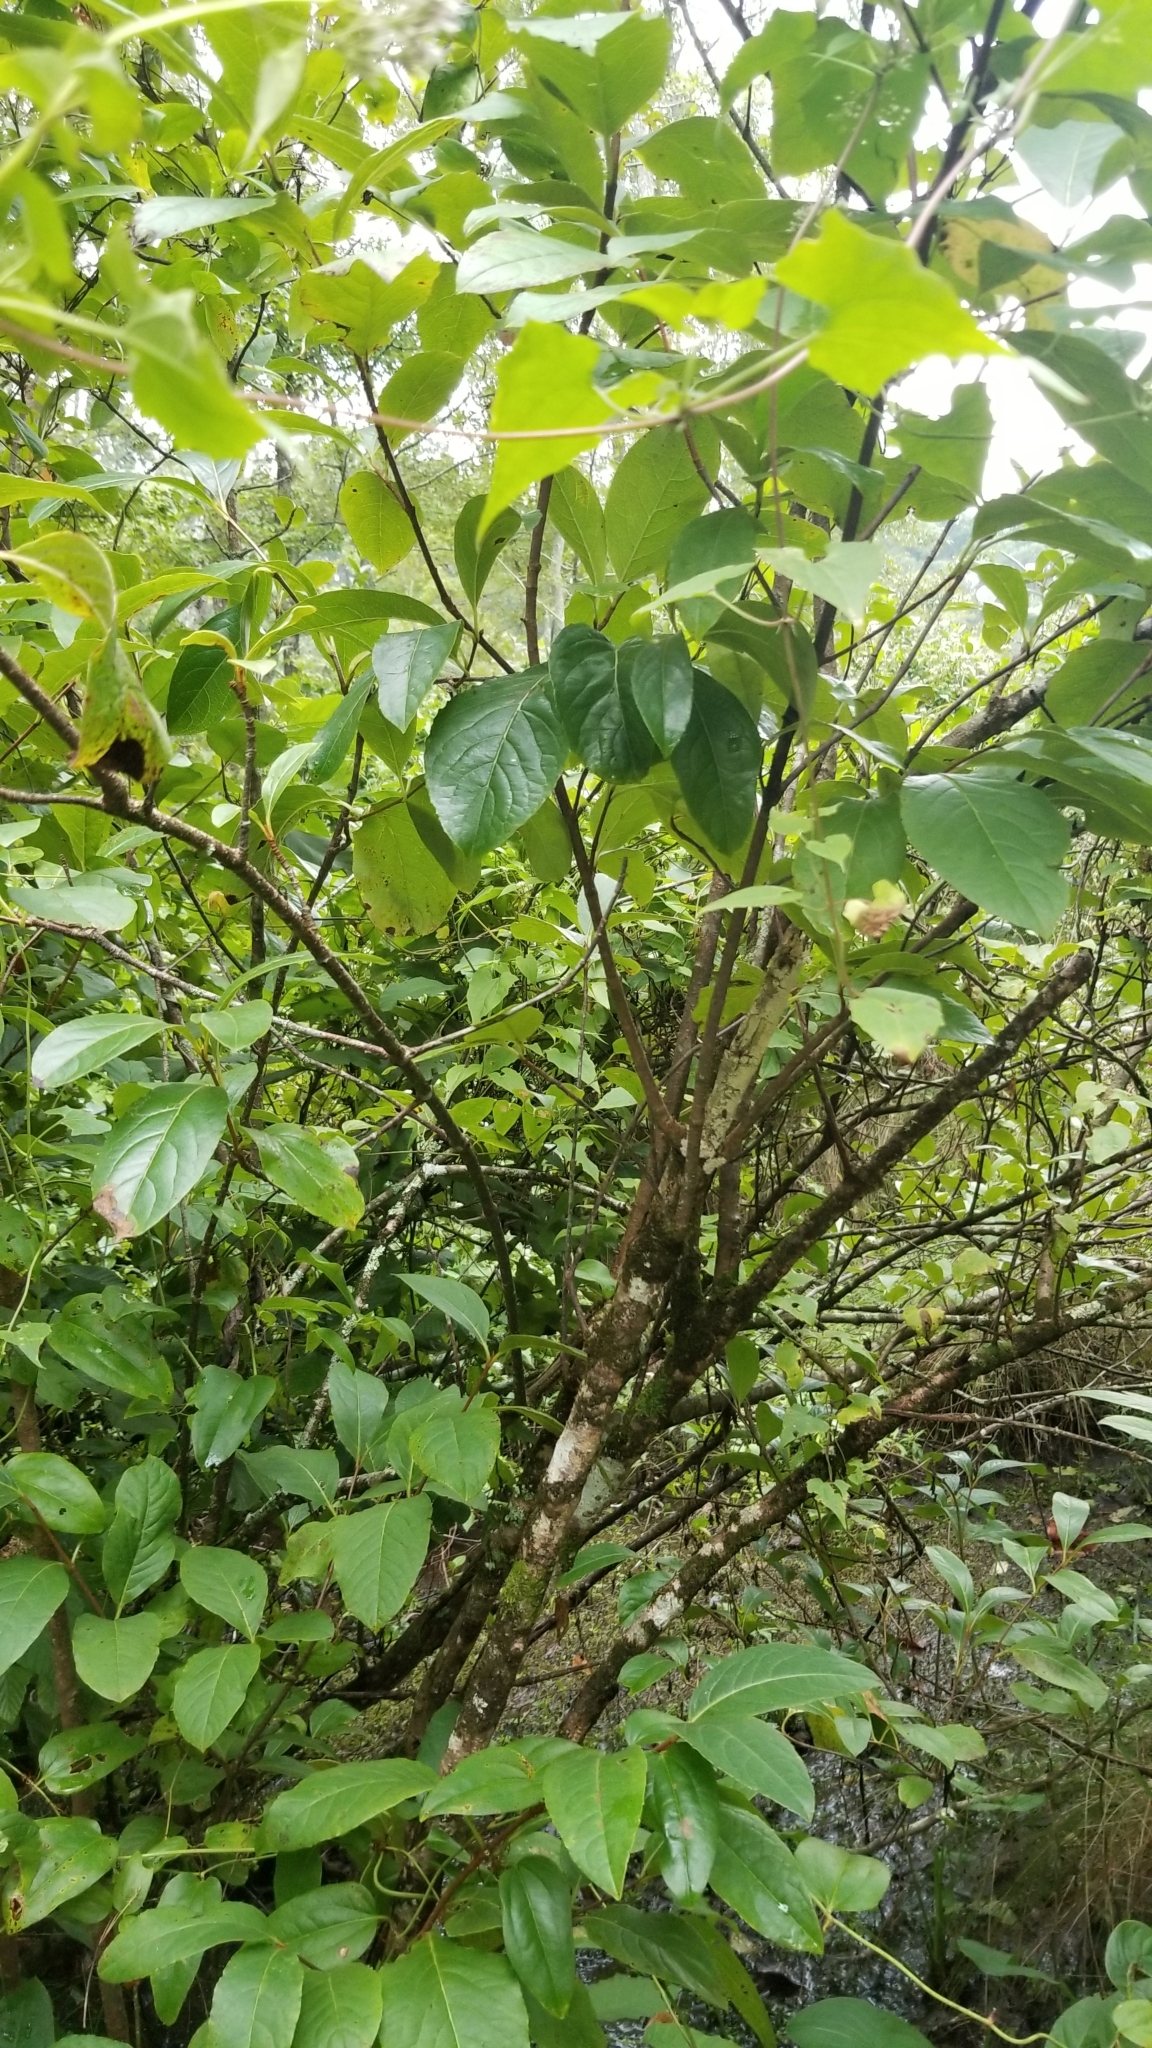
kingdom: Plantae
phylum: Tracheophyta
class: Magnoliopsida
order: Dipsacales
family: Viburnaceae
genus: Viburnum
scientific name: Viburnum nudum
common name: Possum haw
